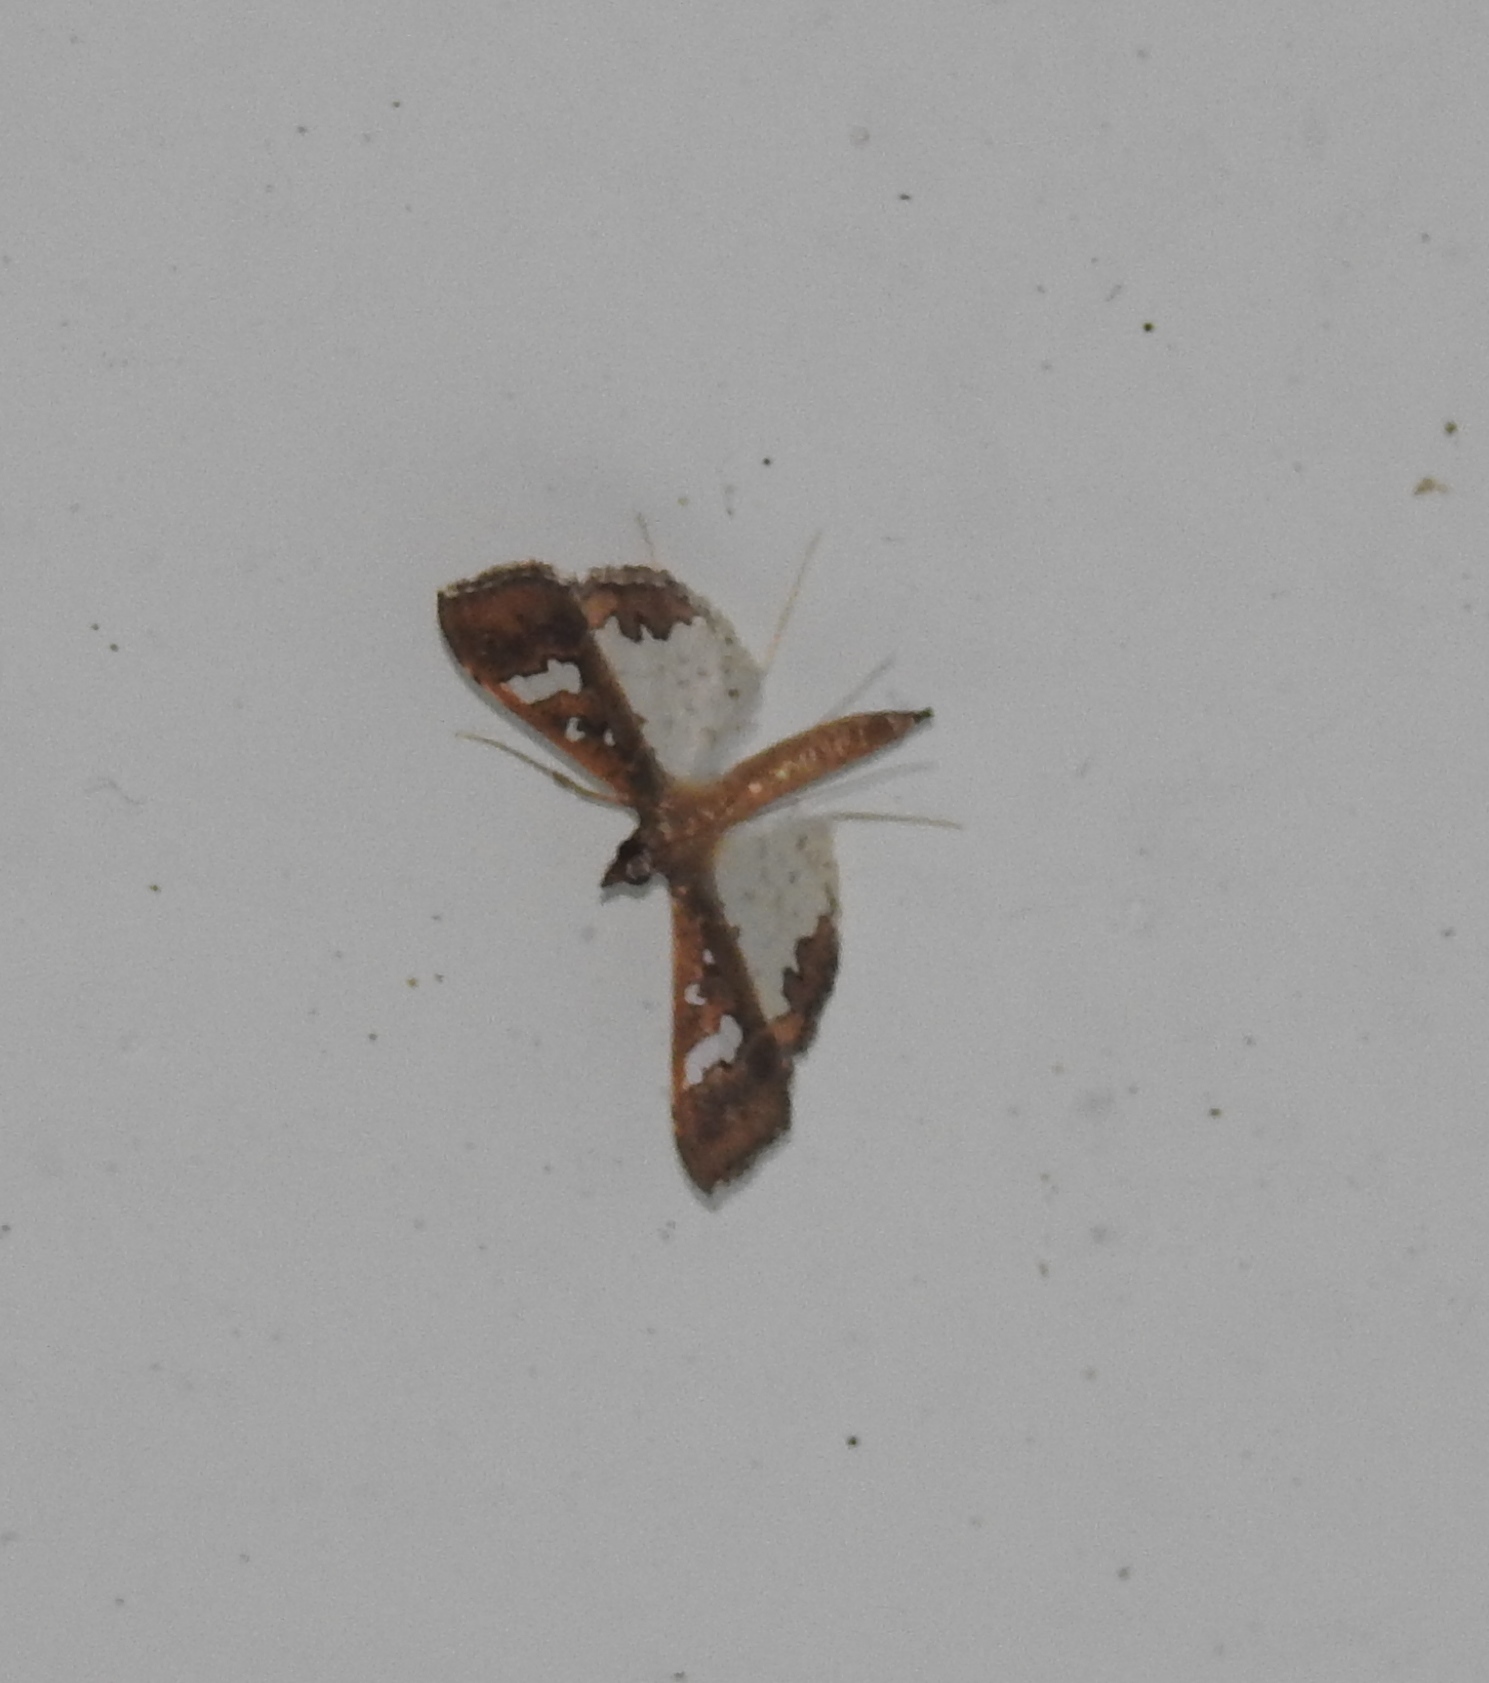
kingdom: Animalia
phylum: Arthropoda
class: Insecta
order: Lepidoptera
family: Crambidae
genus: Maruca
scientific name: Maruca vitrata
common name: Maruca pod borer
